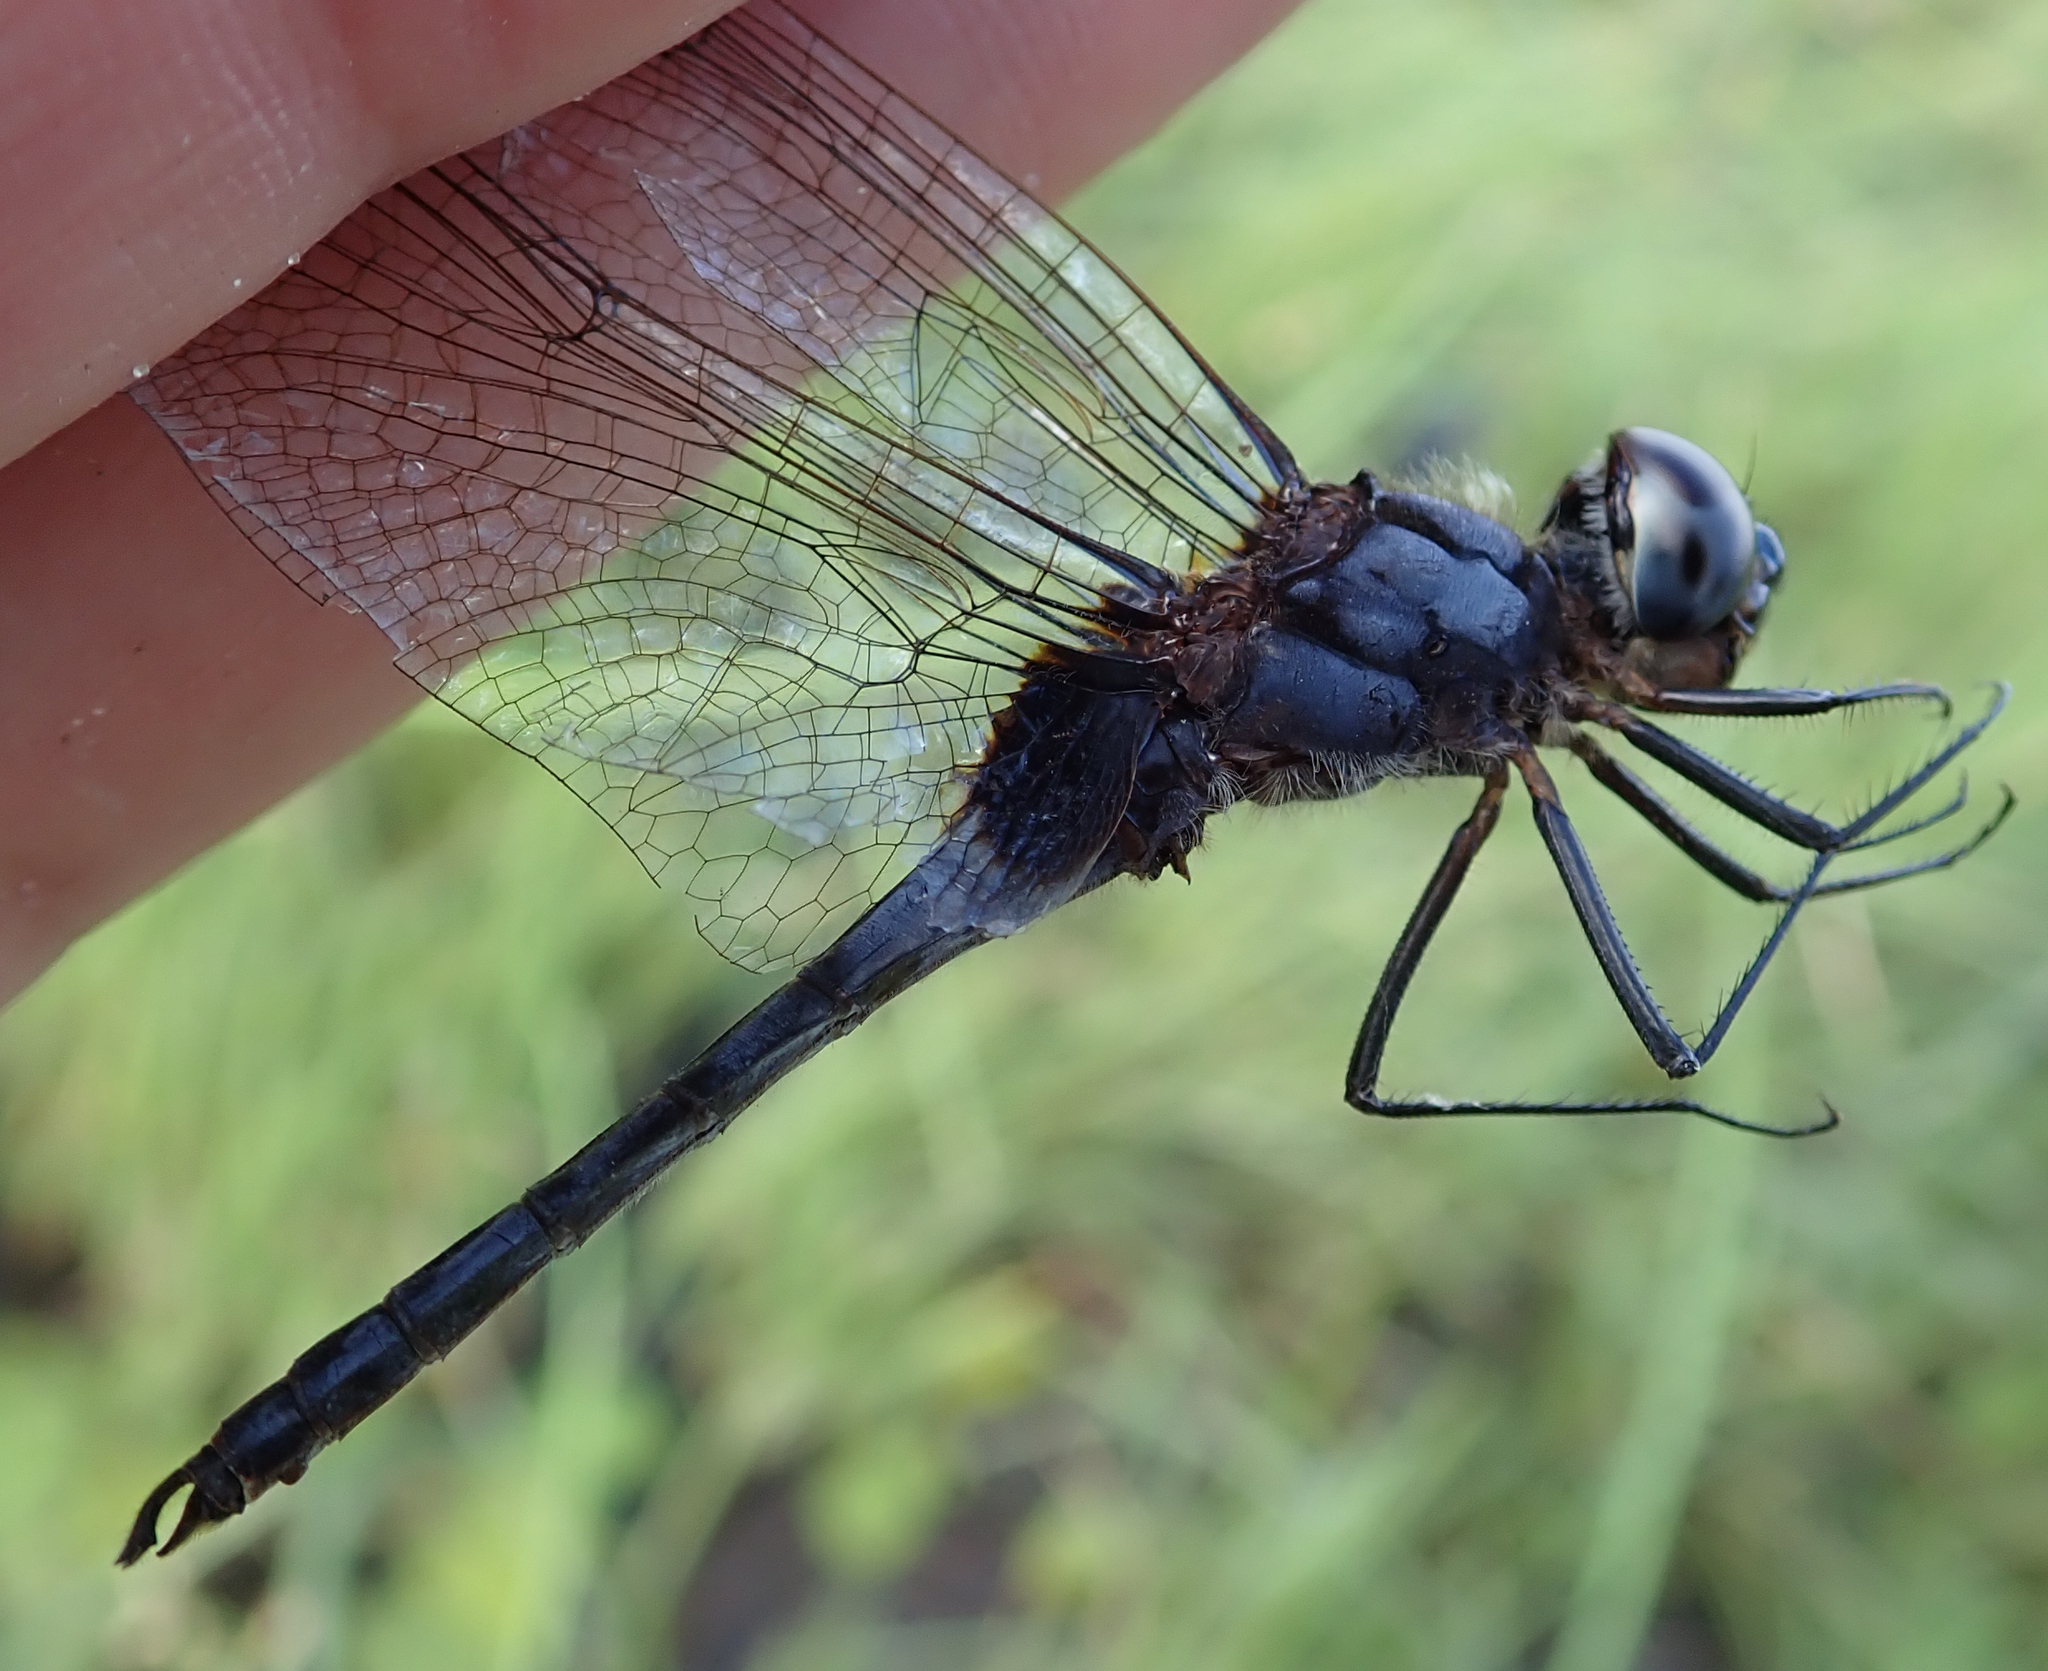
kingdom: Animalia
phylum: Arthropoda
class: Insecta
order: Odonata
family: Libellulidae
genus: Urothemis
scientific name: Urothemis edwardsii
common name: Blue basker
